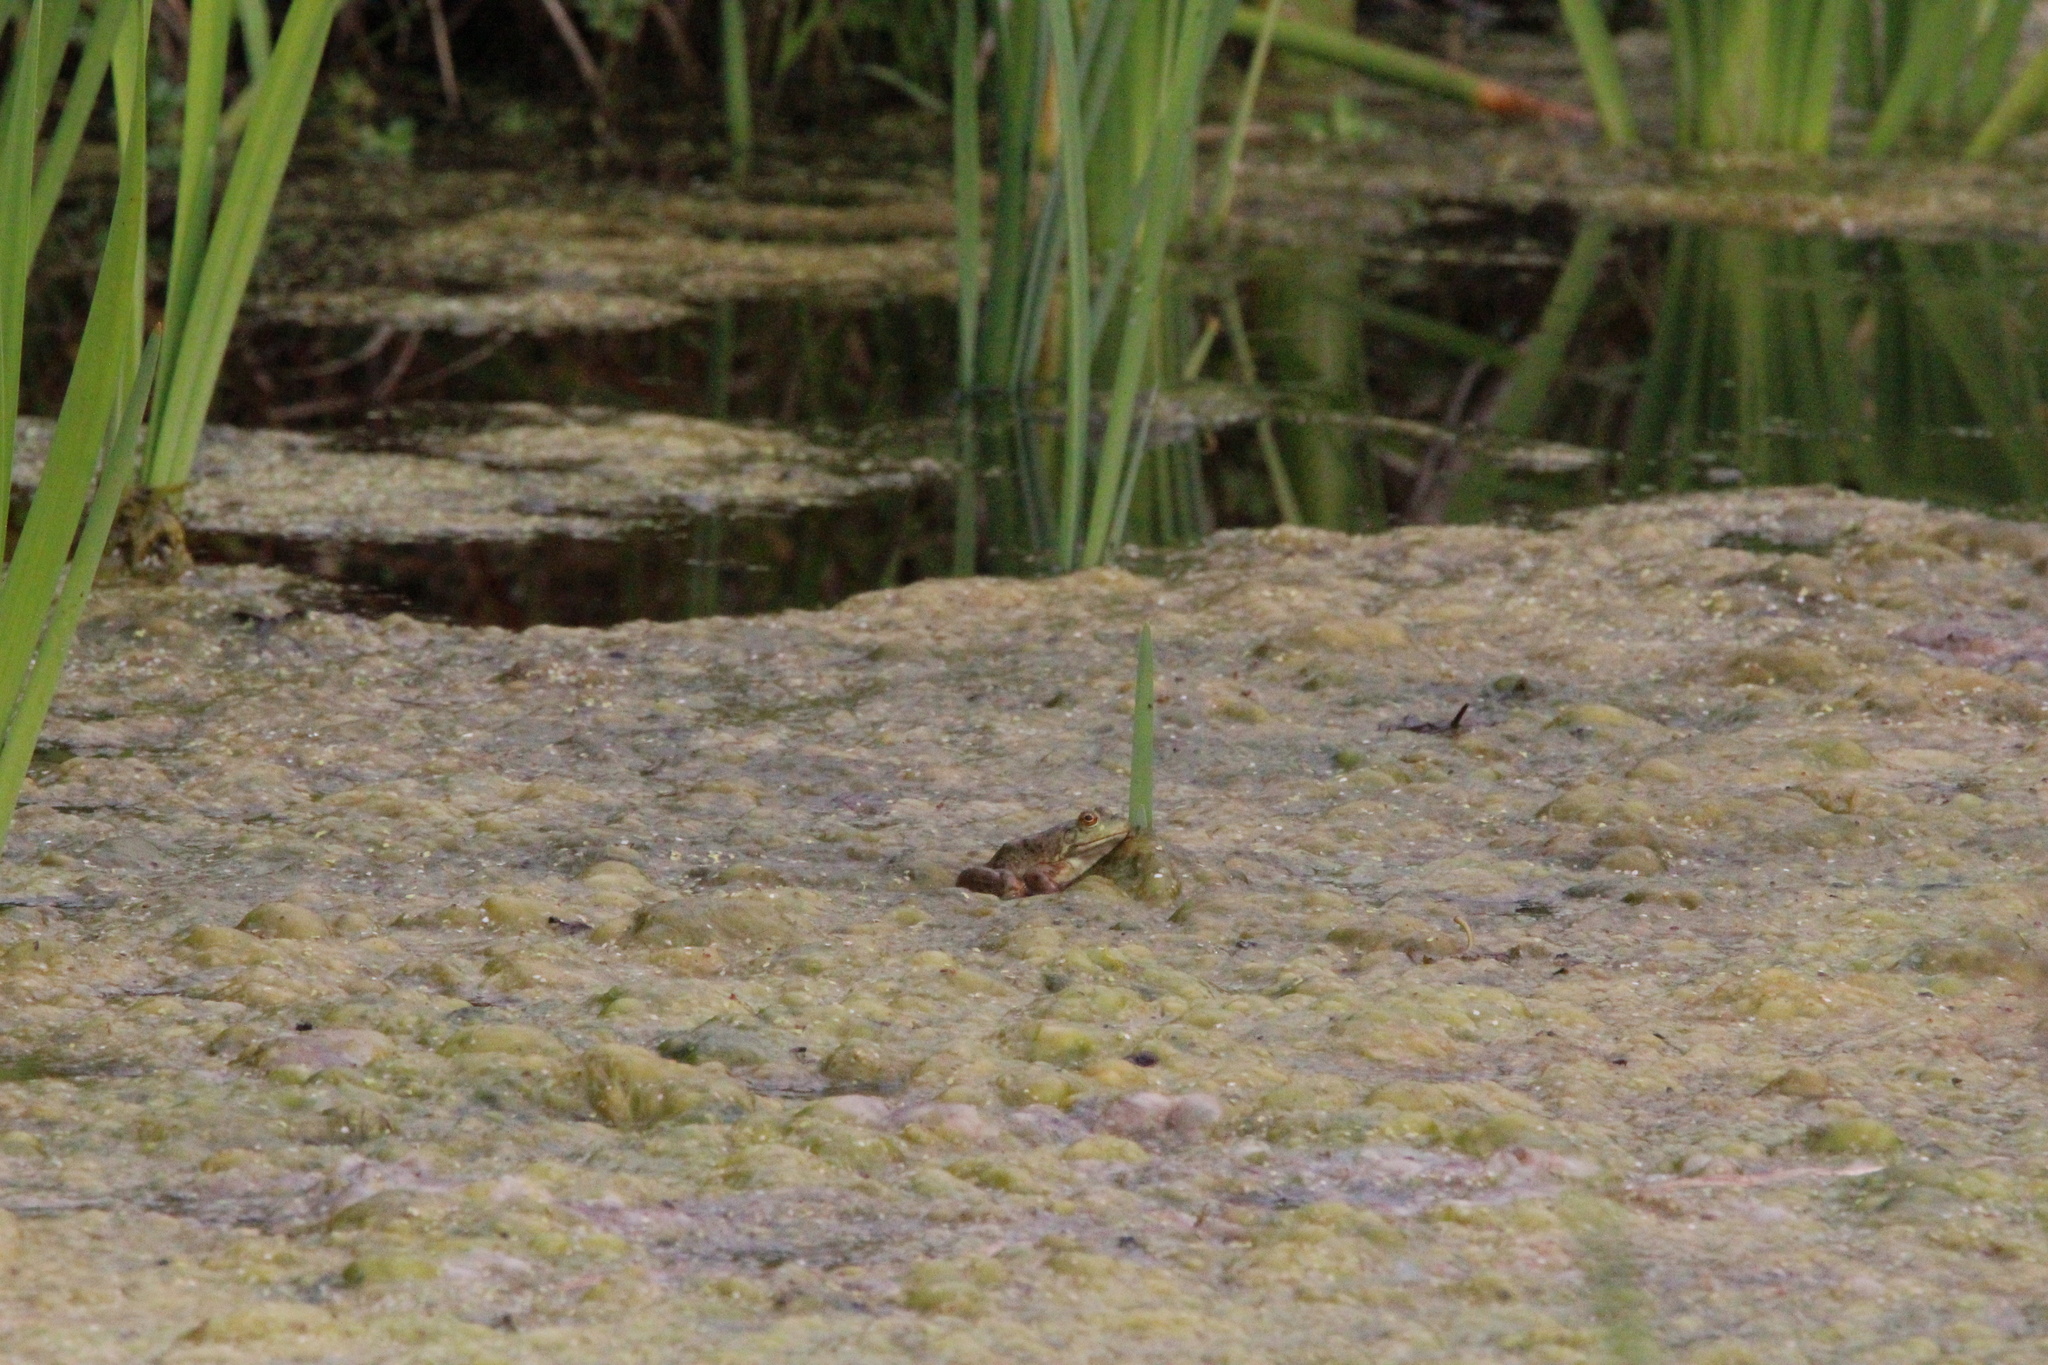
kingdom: Animalia
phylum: Chordata
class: Amphibia
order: Anura
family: Ranidae
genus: Lithobates
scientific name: Lithobates catesbeianus
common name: American bullfrog
